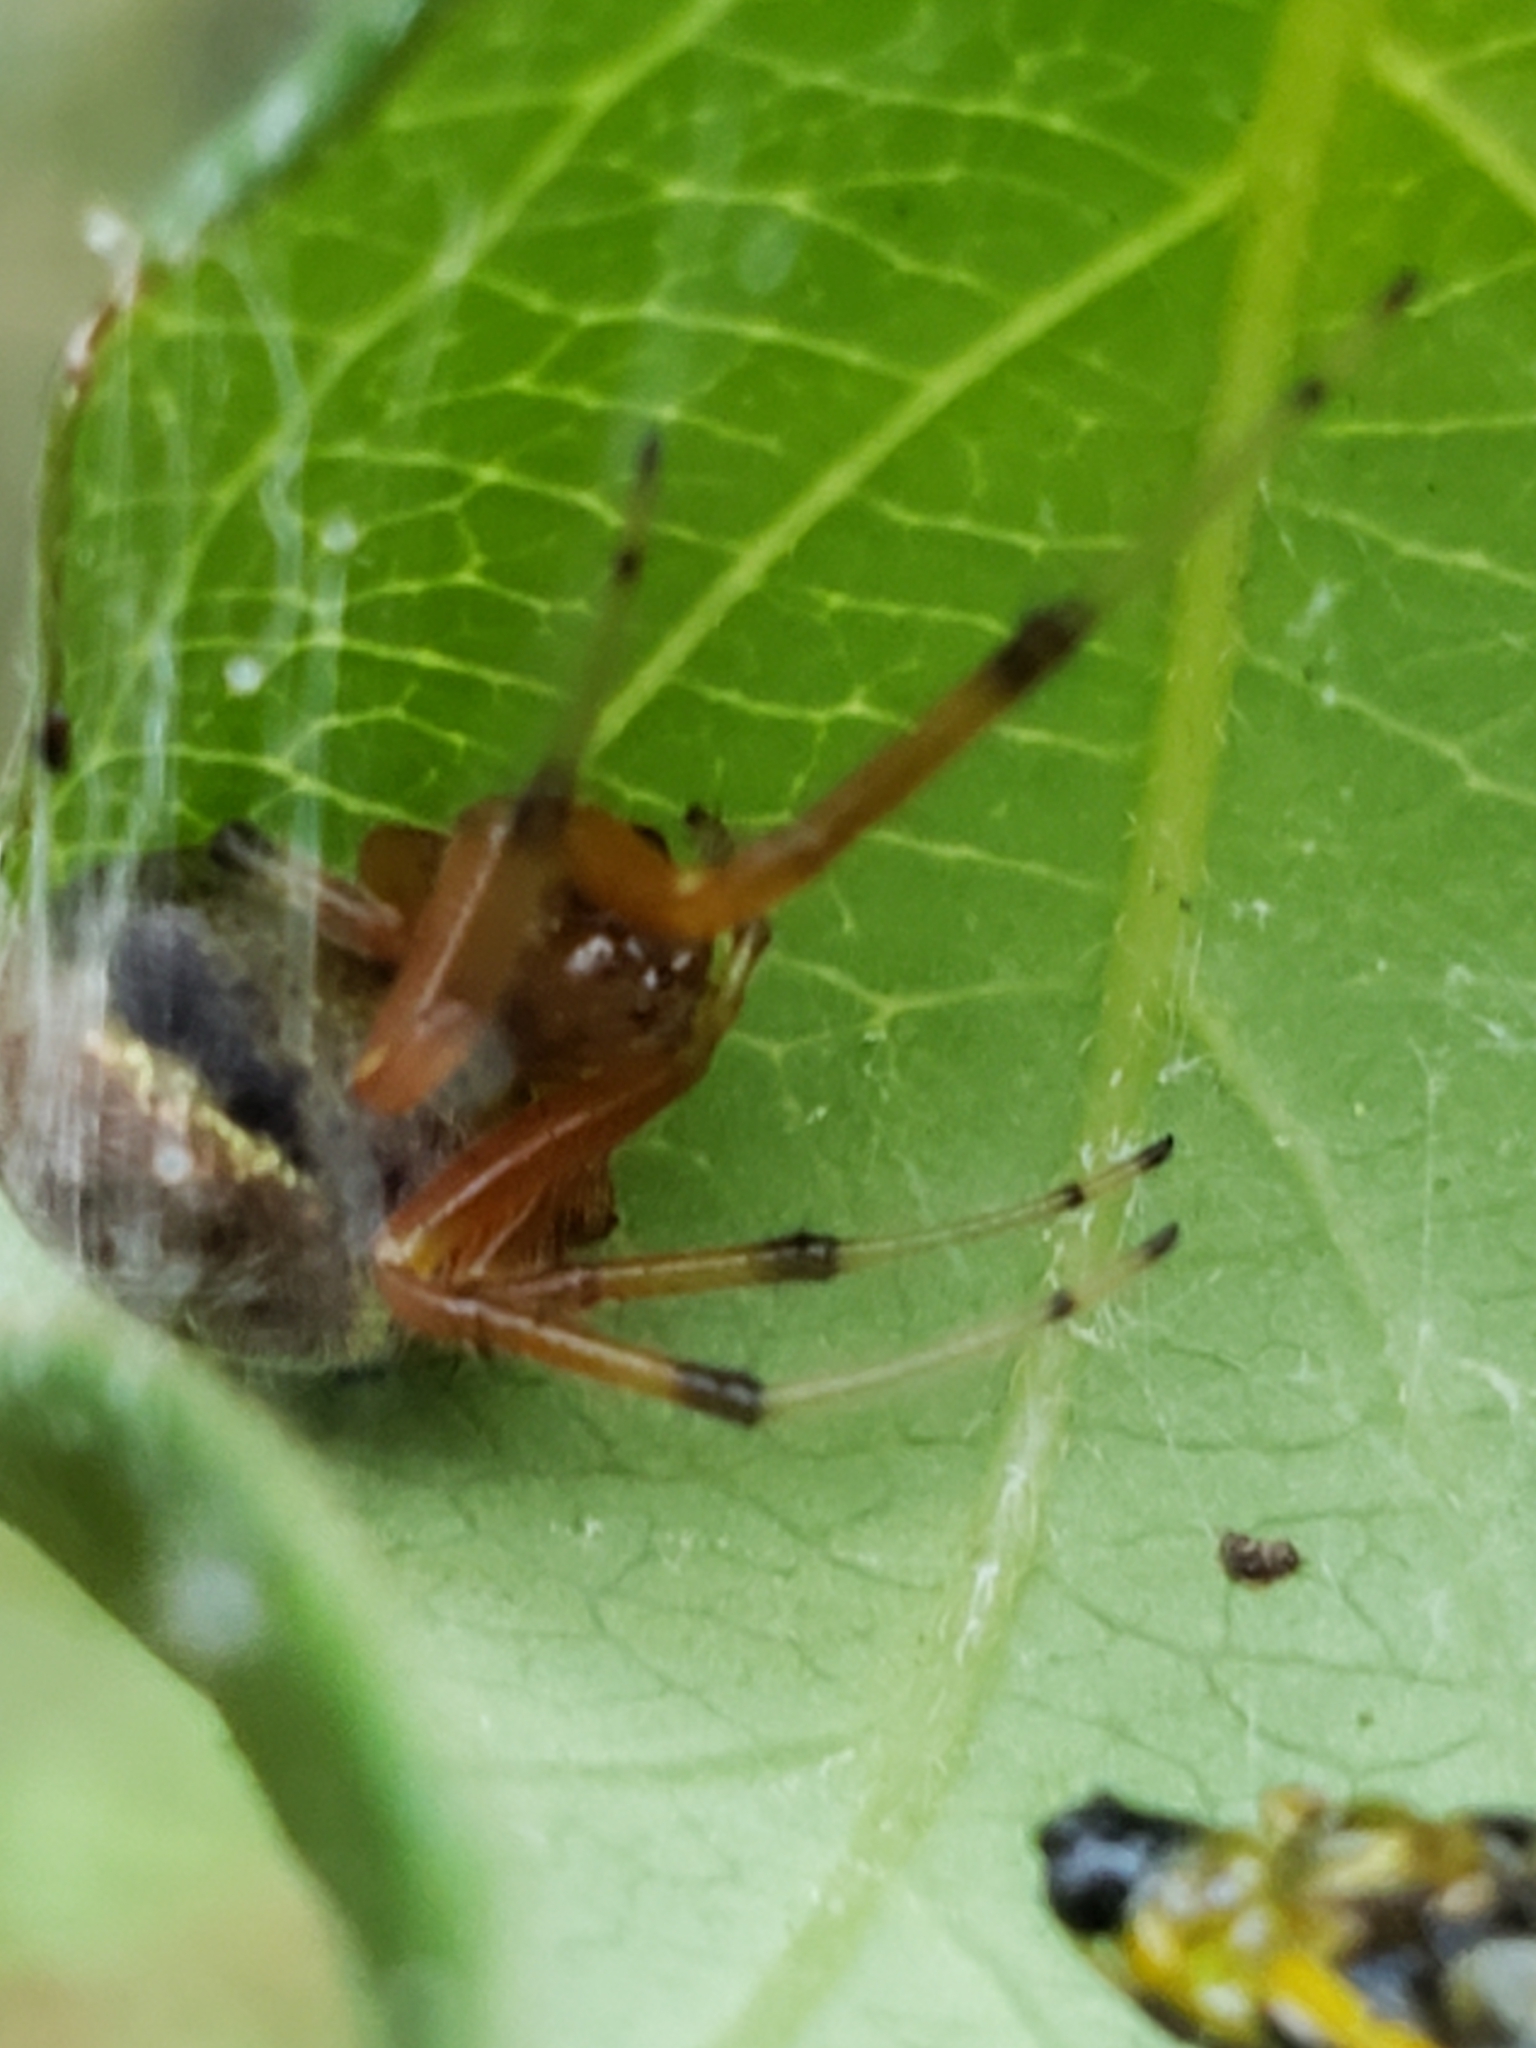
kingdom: Animalia
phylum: Arthropoda
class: Arachnida
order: Araneae
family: Araneidae
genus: Araneus
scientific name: Araneus marmoreus
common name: Marbled orbweaver
